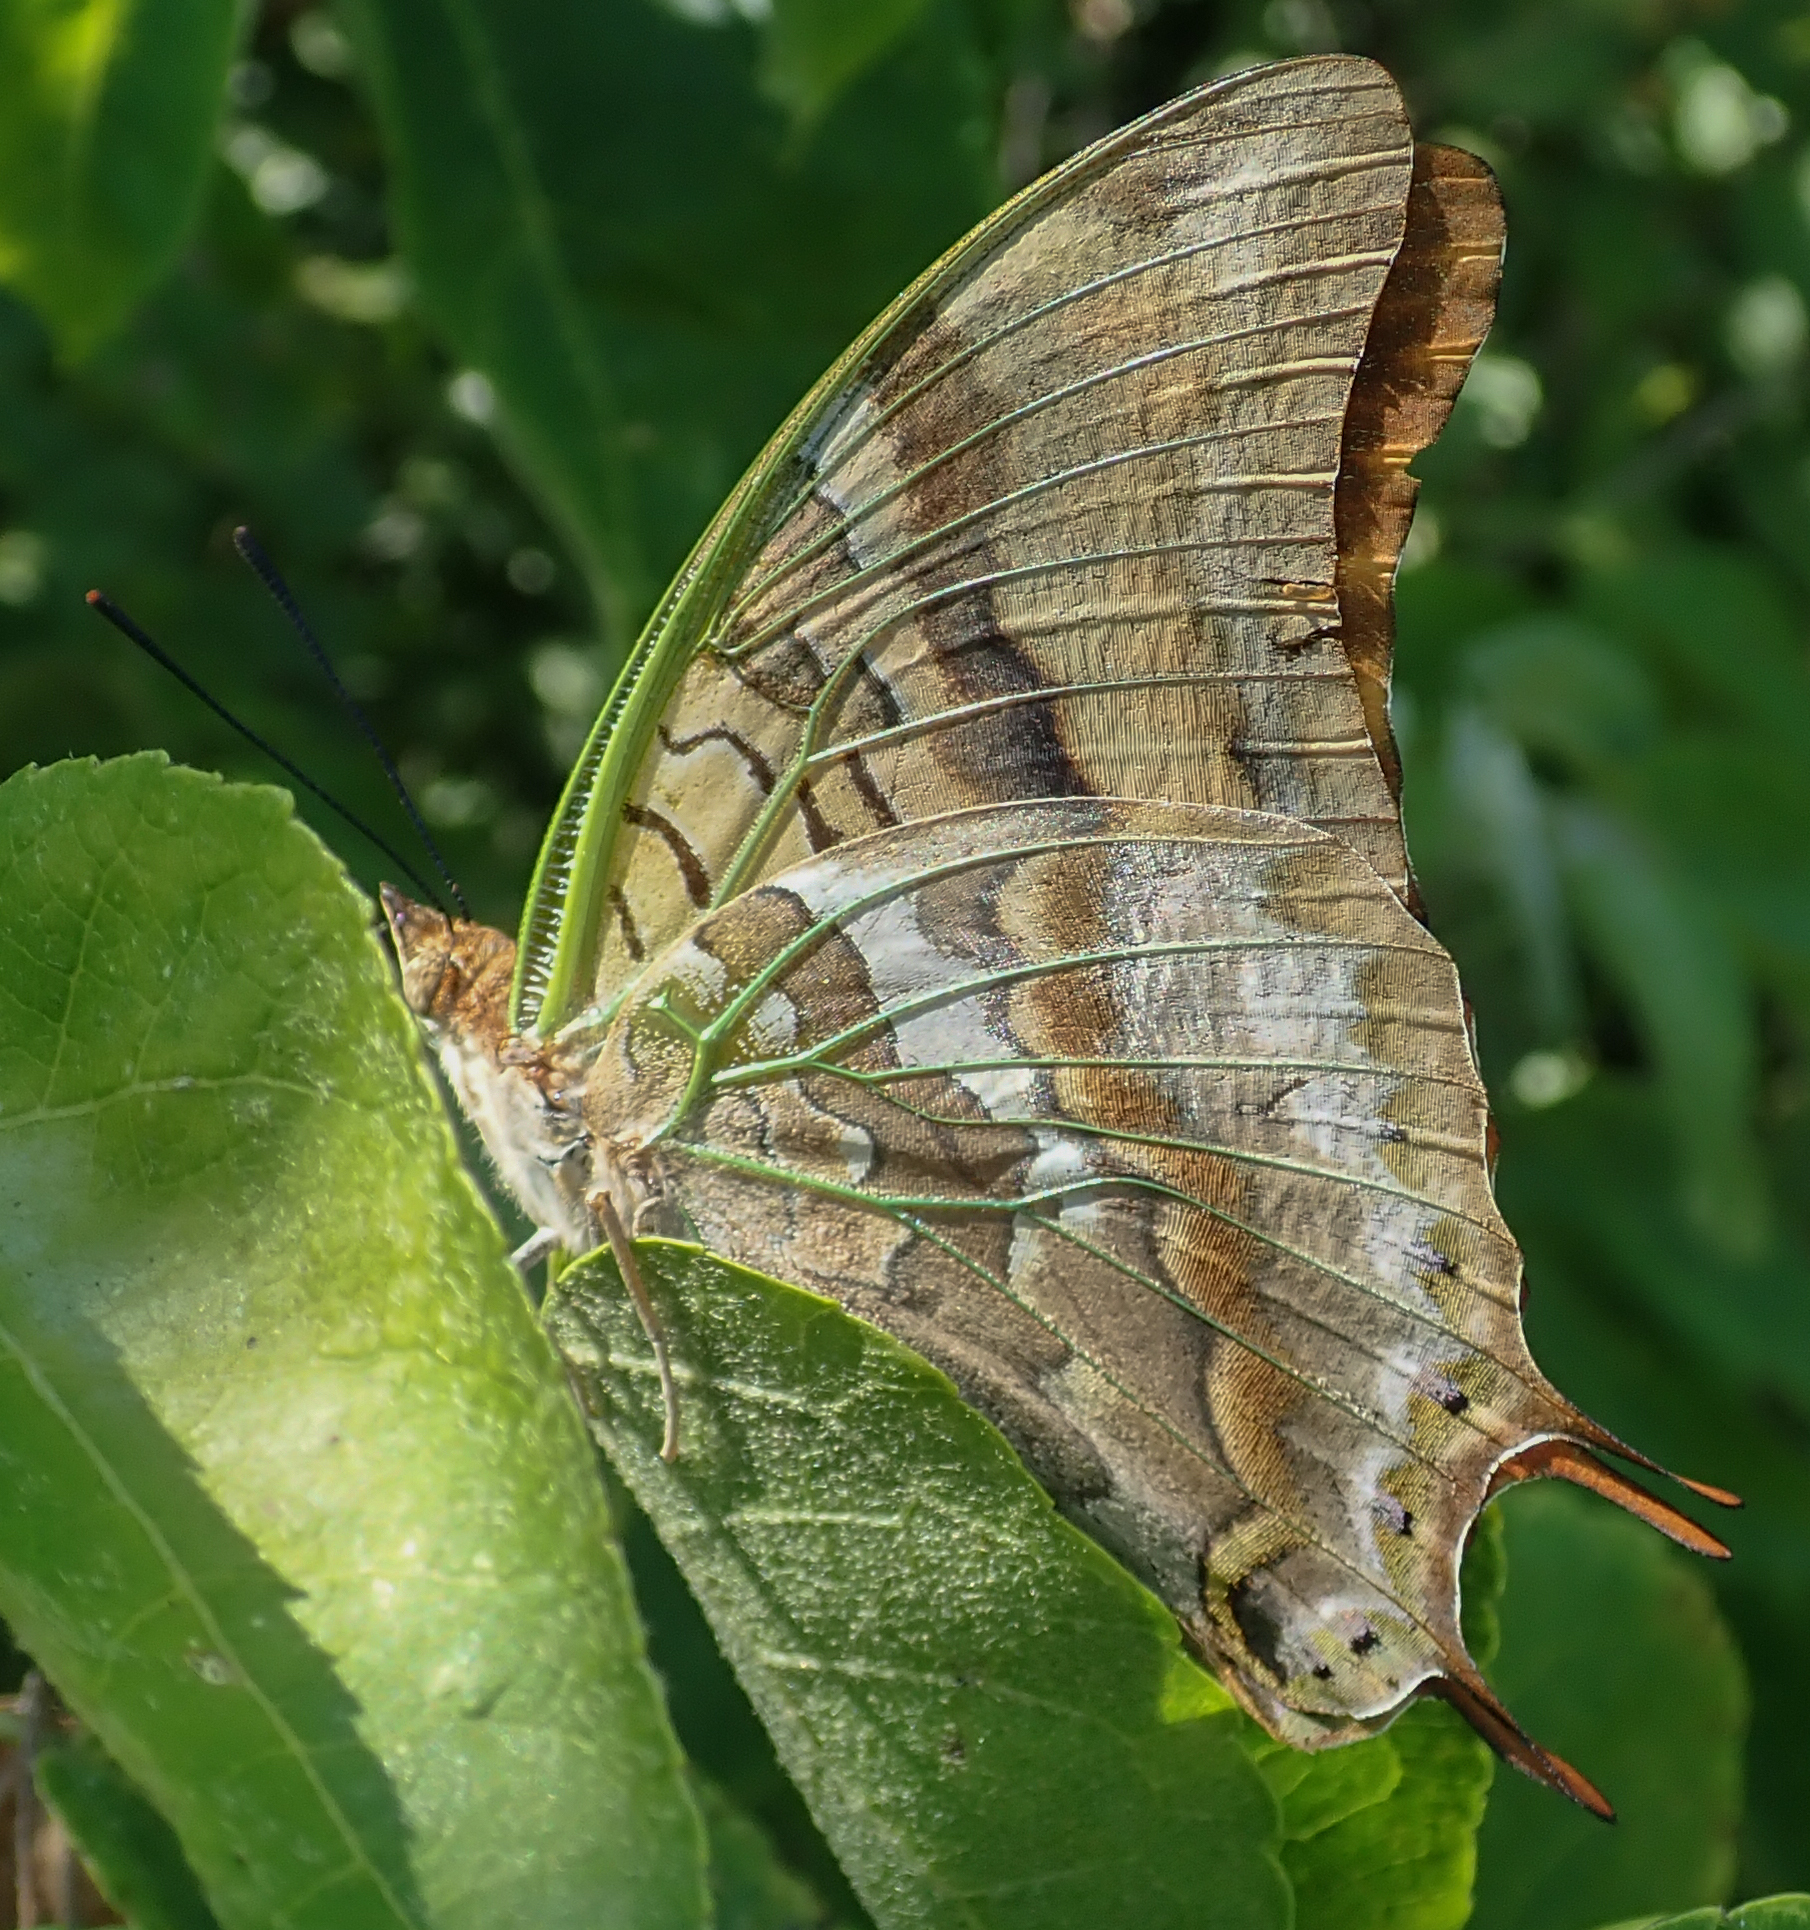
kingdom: Animalia
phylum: Arthropoda
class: Insecta
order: Lepidoptera
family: Nymphalidae
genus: Charaxes
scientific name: Charaxes candiope
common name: Green-veined charaxes
